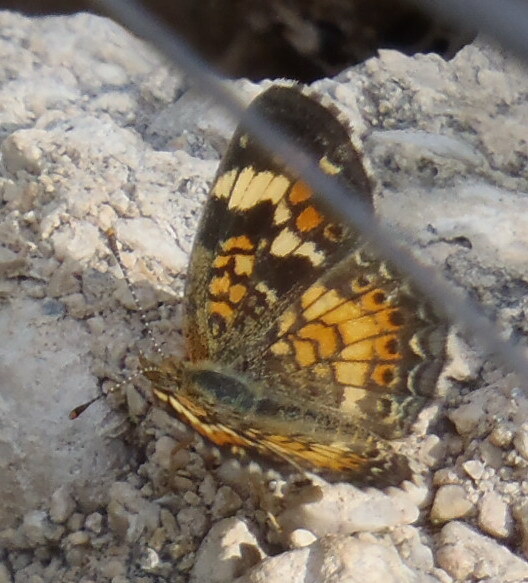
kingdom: Animalia
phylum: Arthropoda
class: Insecta
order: Lepidoptera
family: Nymphalidae
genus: Phyciodes
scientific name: Phyciodes phaon
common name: Phaon crescent
